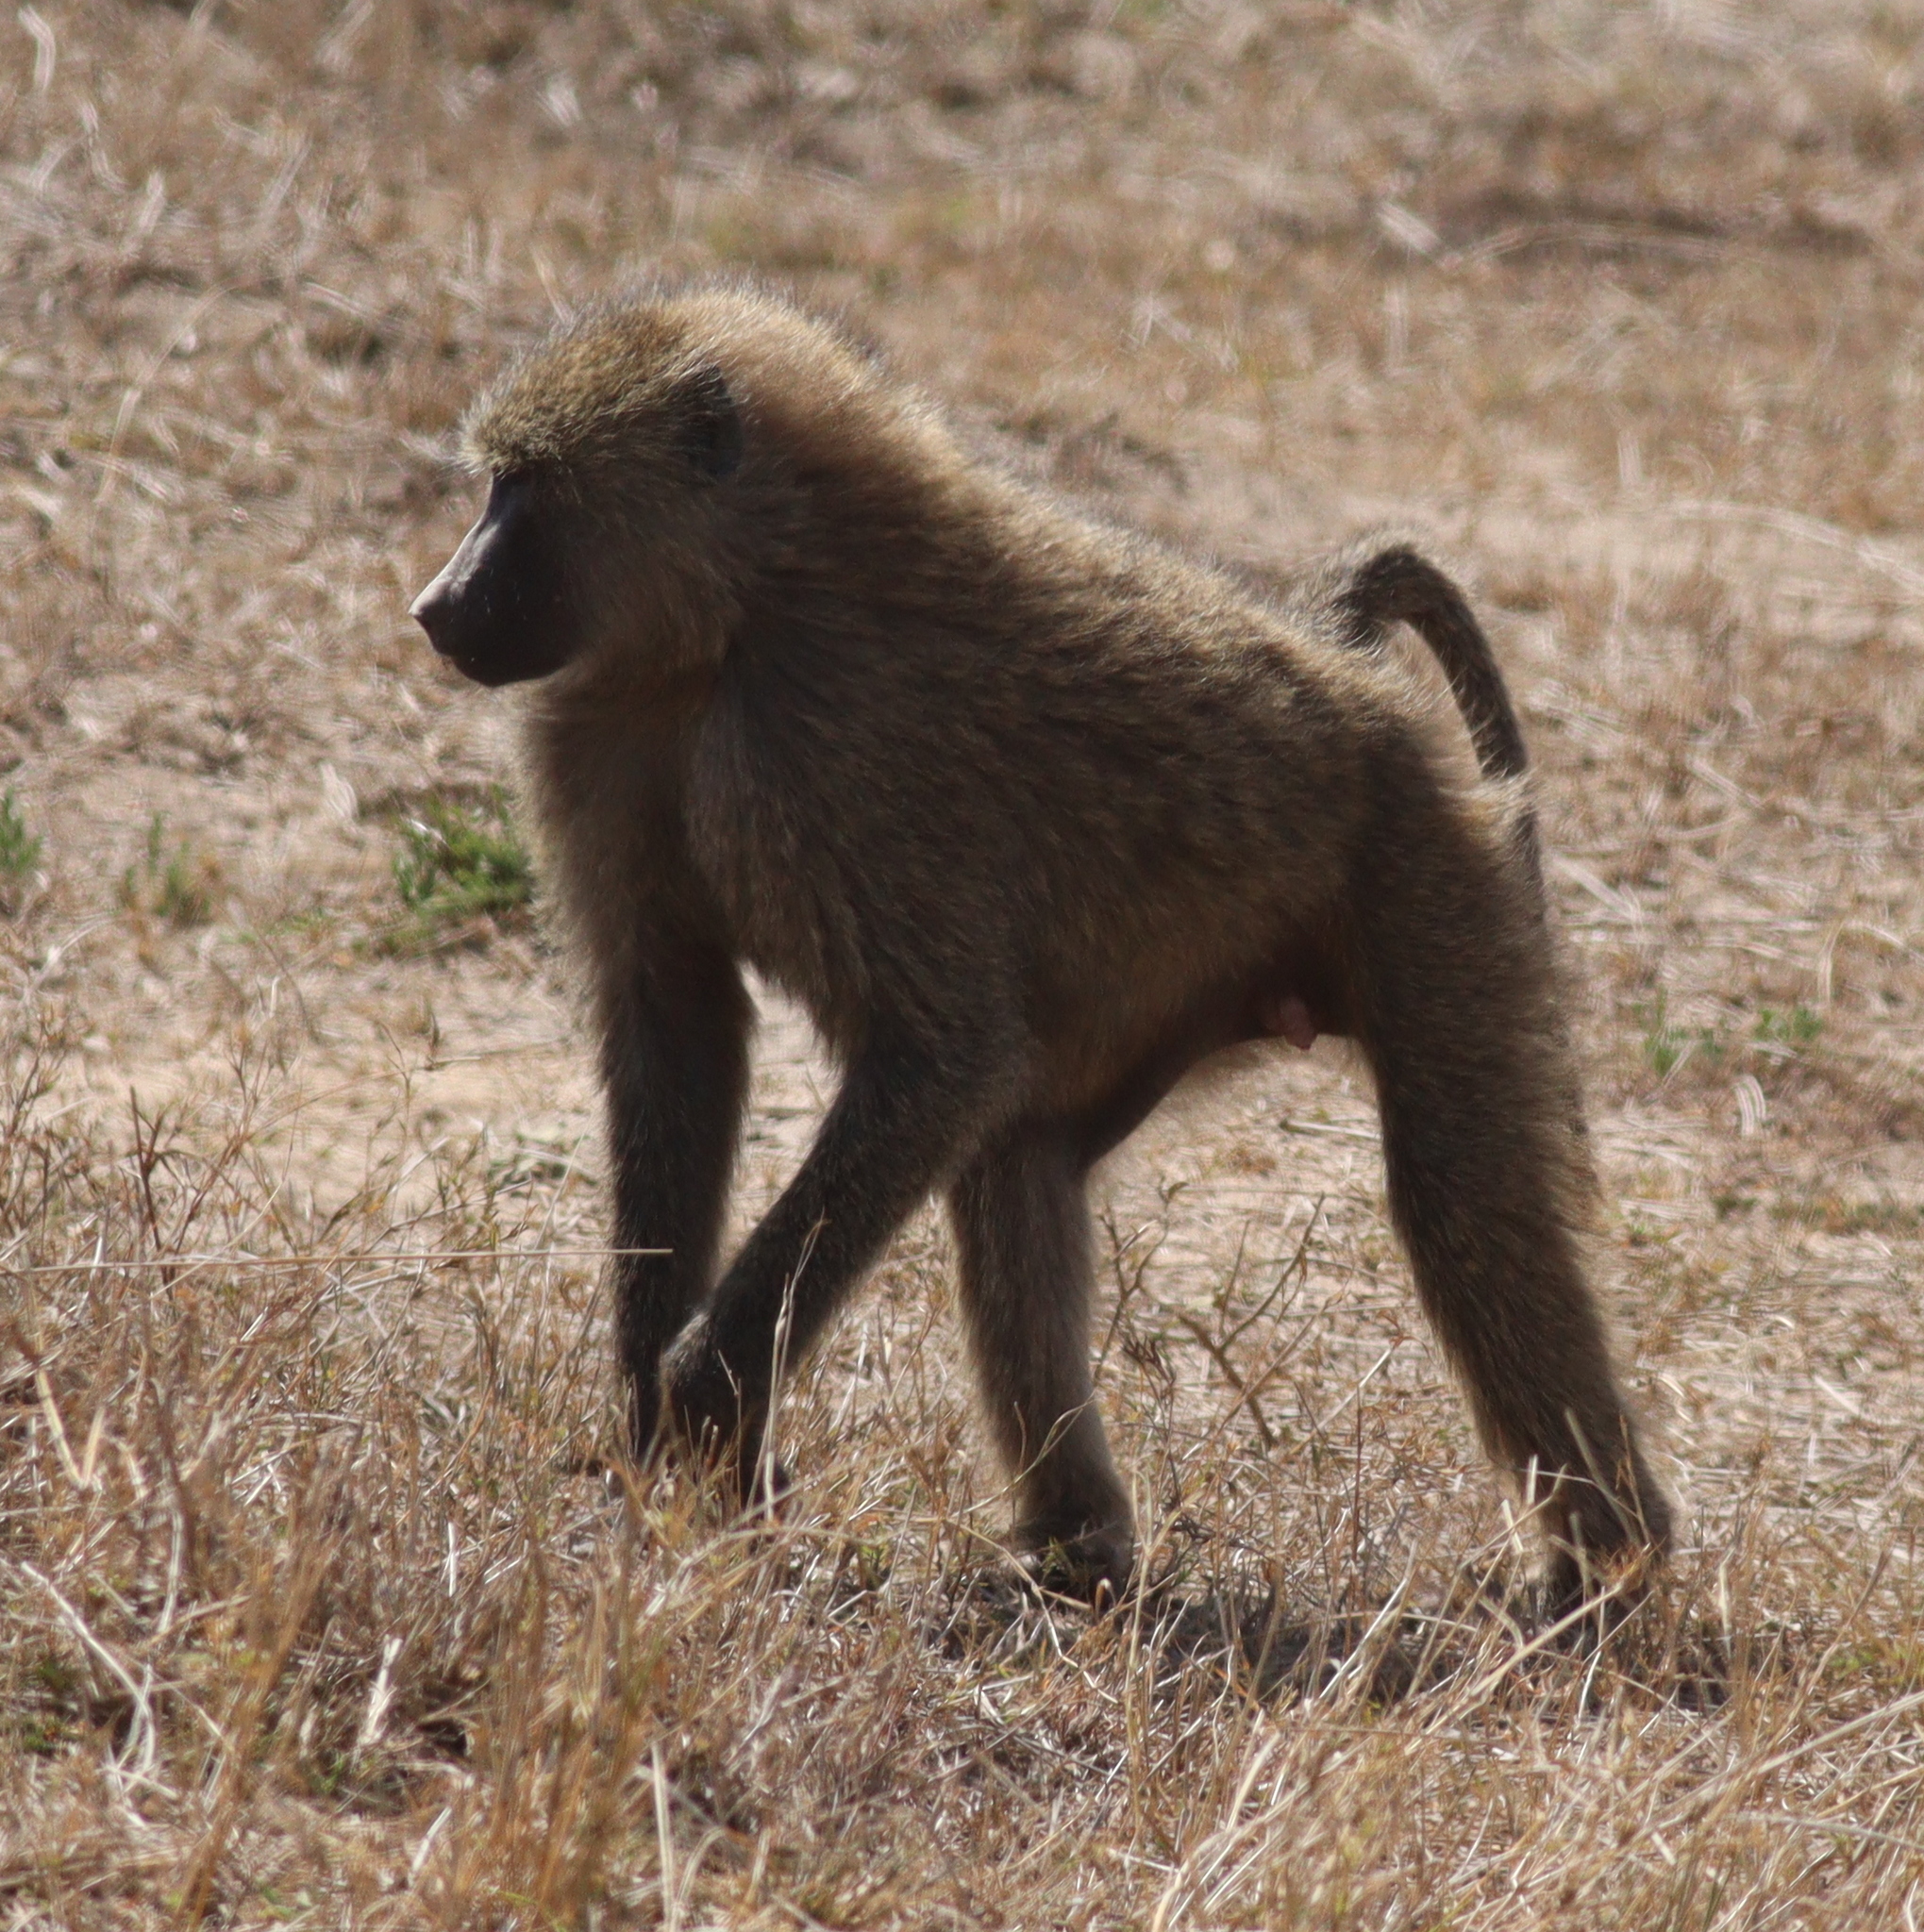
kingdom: Animalia
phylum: Chordata
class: Mammalia
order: Primates
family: Cercopithecidae
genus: Papio
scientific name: Papio anubis
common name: Olive baboon
